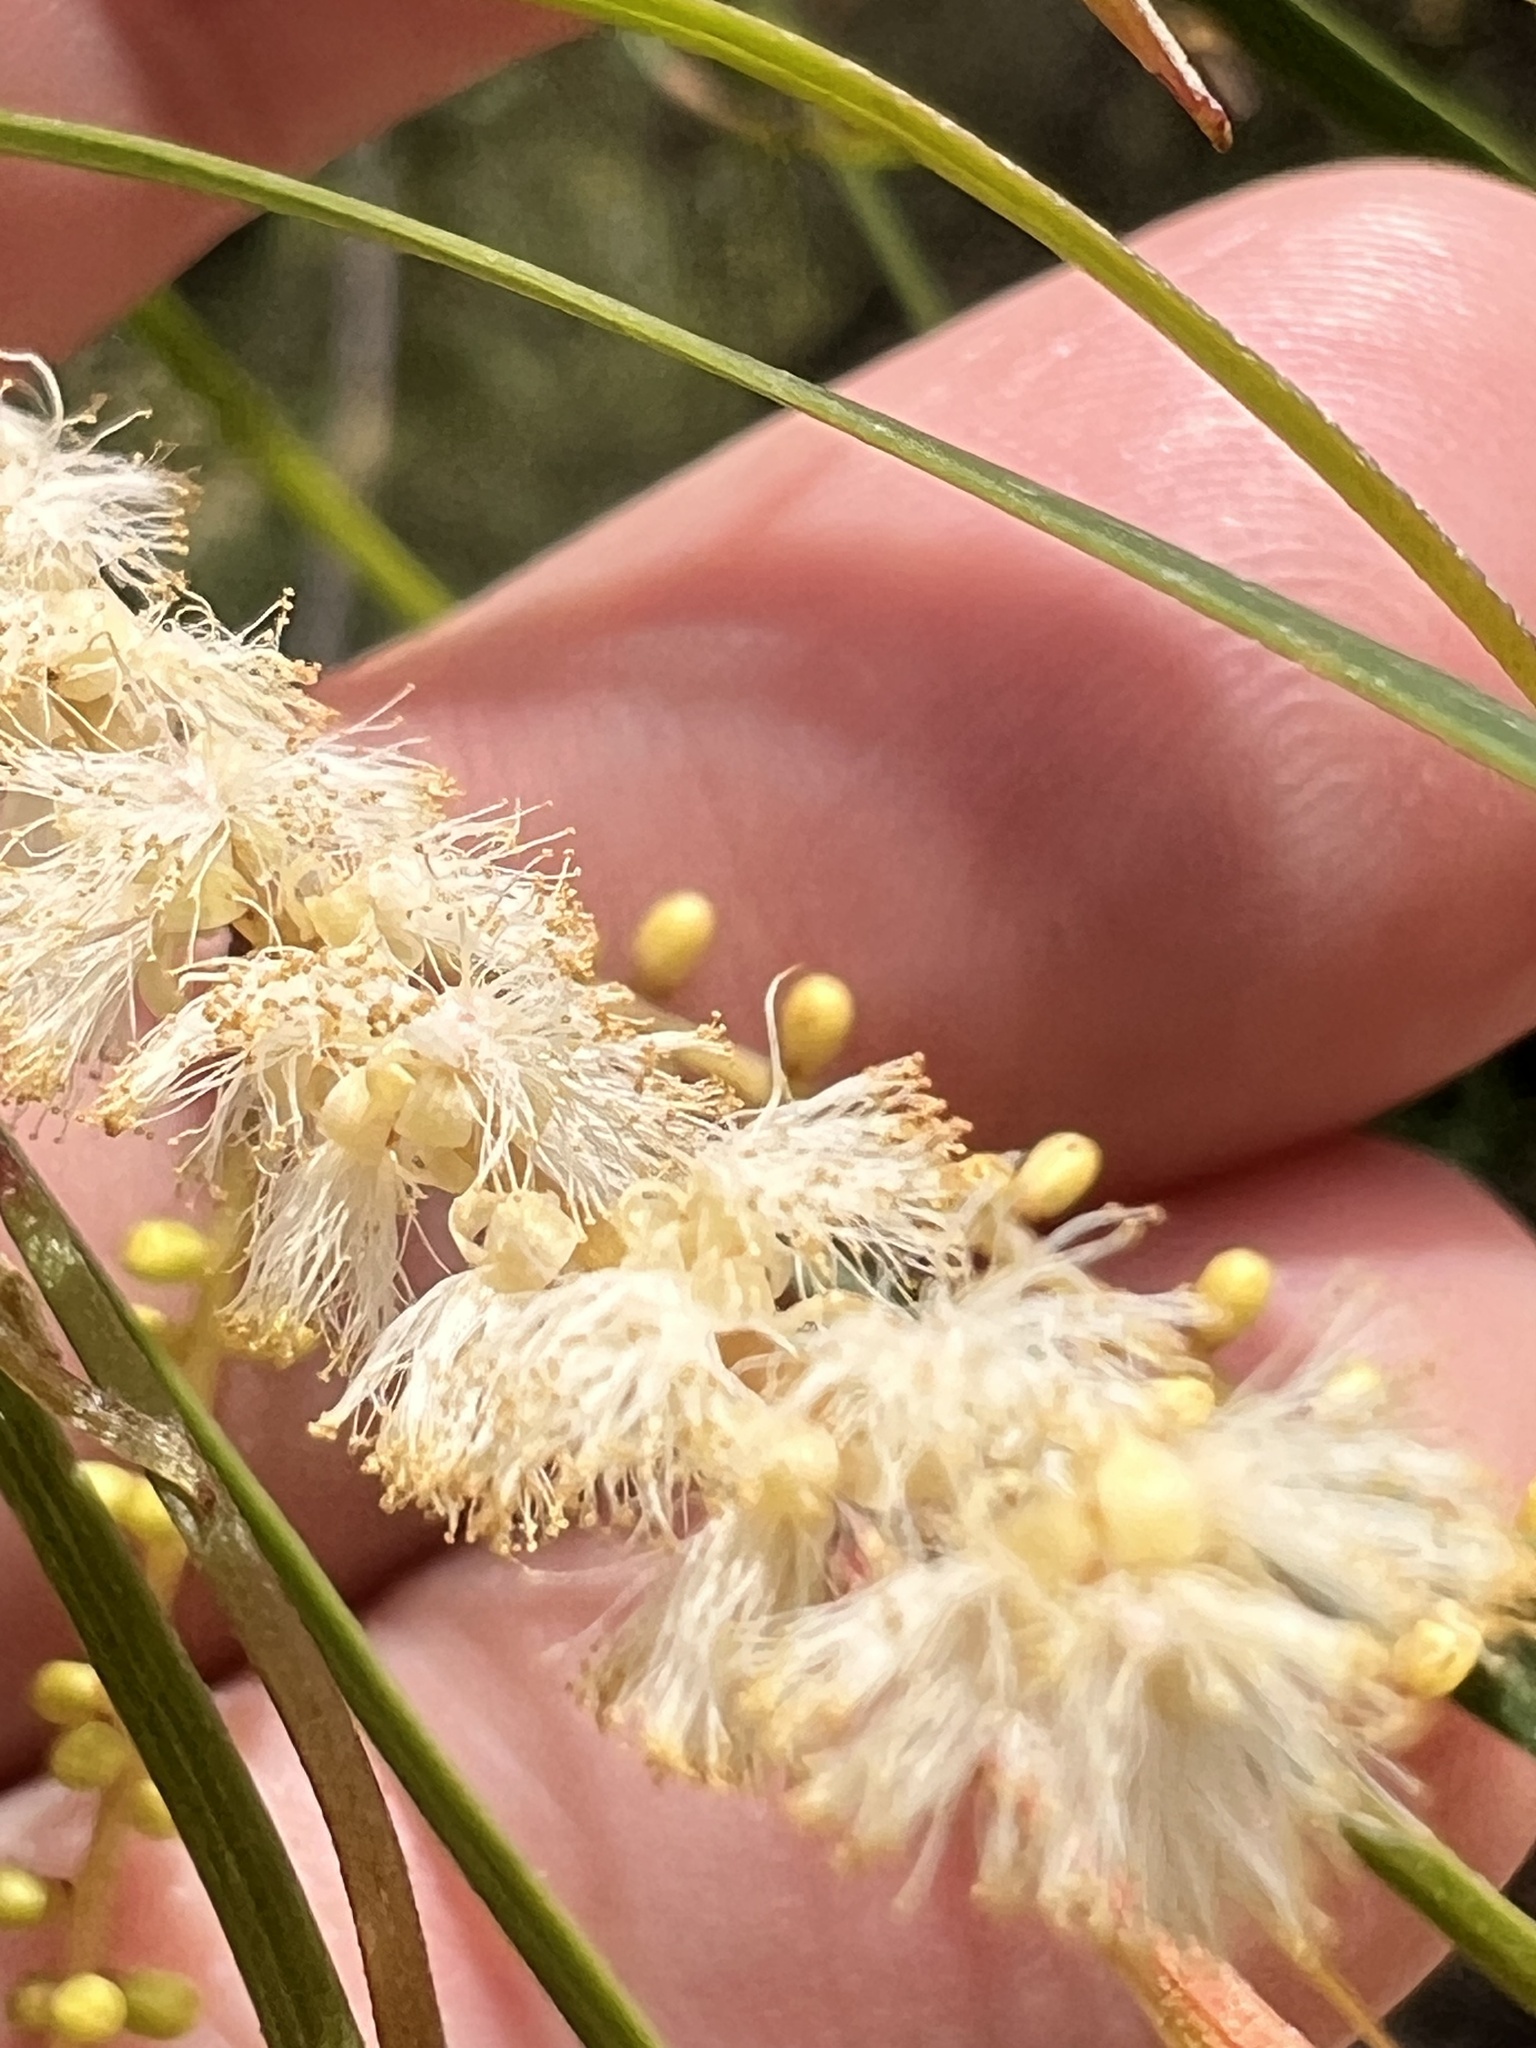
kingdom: Plantae
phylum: Tracheophyta
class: Magnoliopsida
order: Fabales
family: Fabaceae
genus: Acacia
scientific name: Acacia longissima
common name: Longleaf wattle
